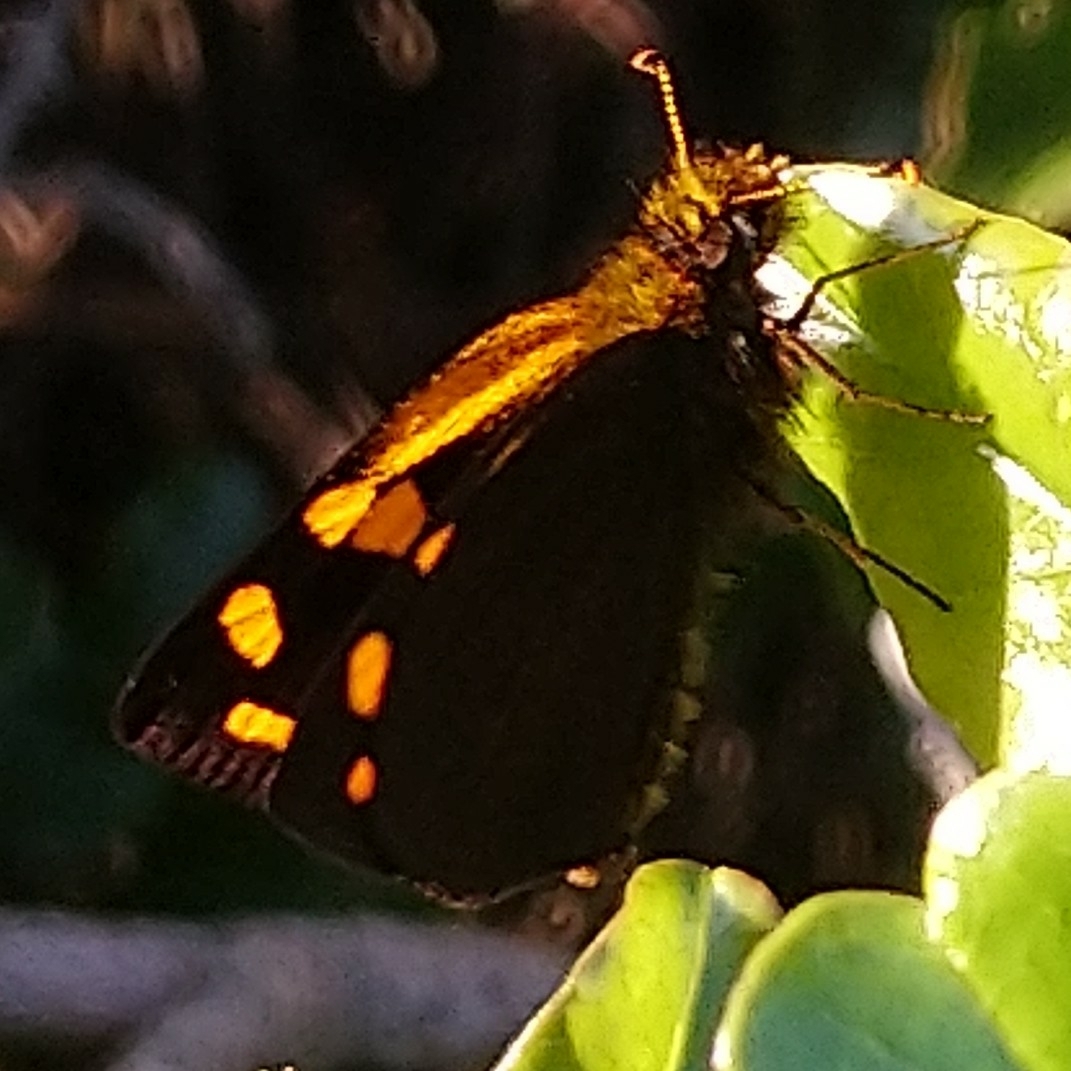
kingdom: Animalia
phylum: Arthropoda
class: Insecta
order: Lepidoptera
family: Hesperiidae
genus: Metisella
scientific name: Metisella metis
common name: Western gold-spotted sylph
